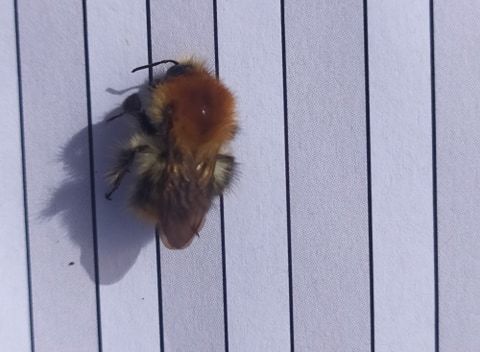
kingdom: Animalia
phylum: Arthropoda
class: Insecta
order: Hymenoptera
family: Apidae
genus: Bombus
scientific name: Bombus pascuorum
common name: Common carder bee
